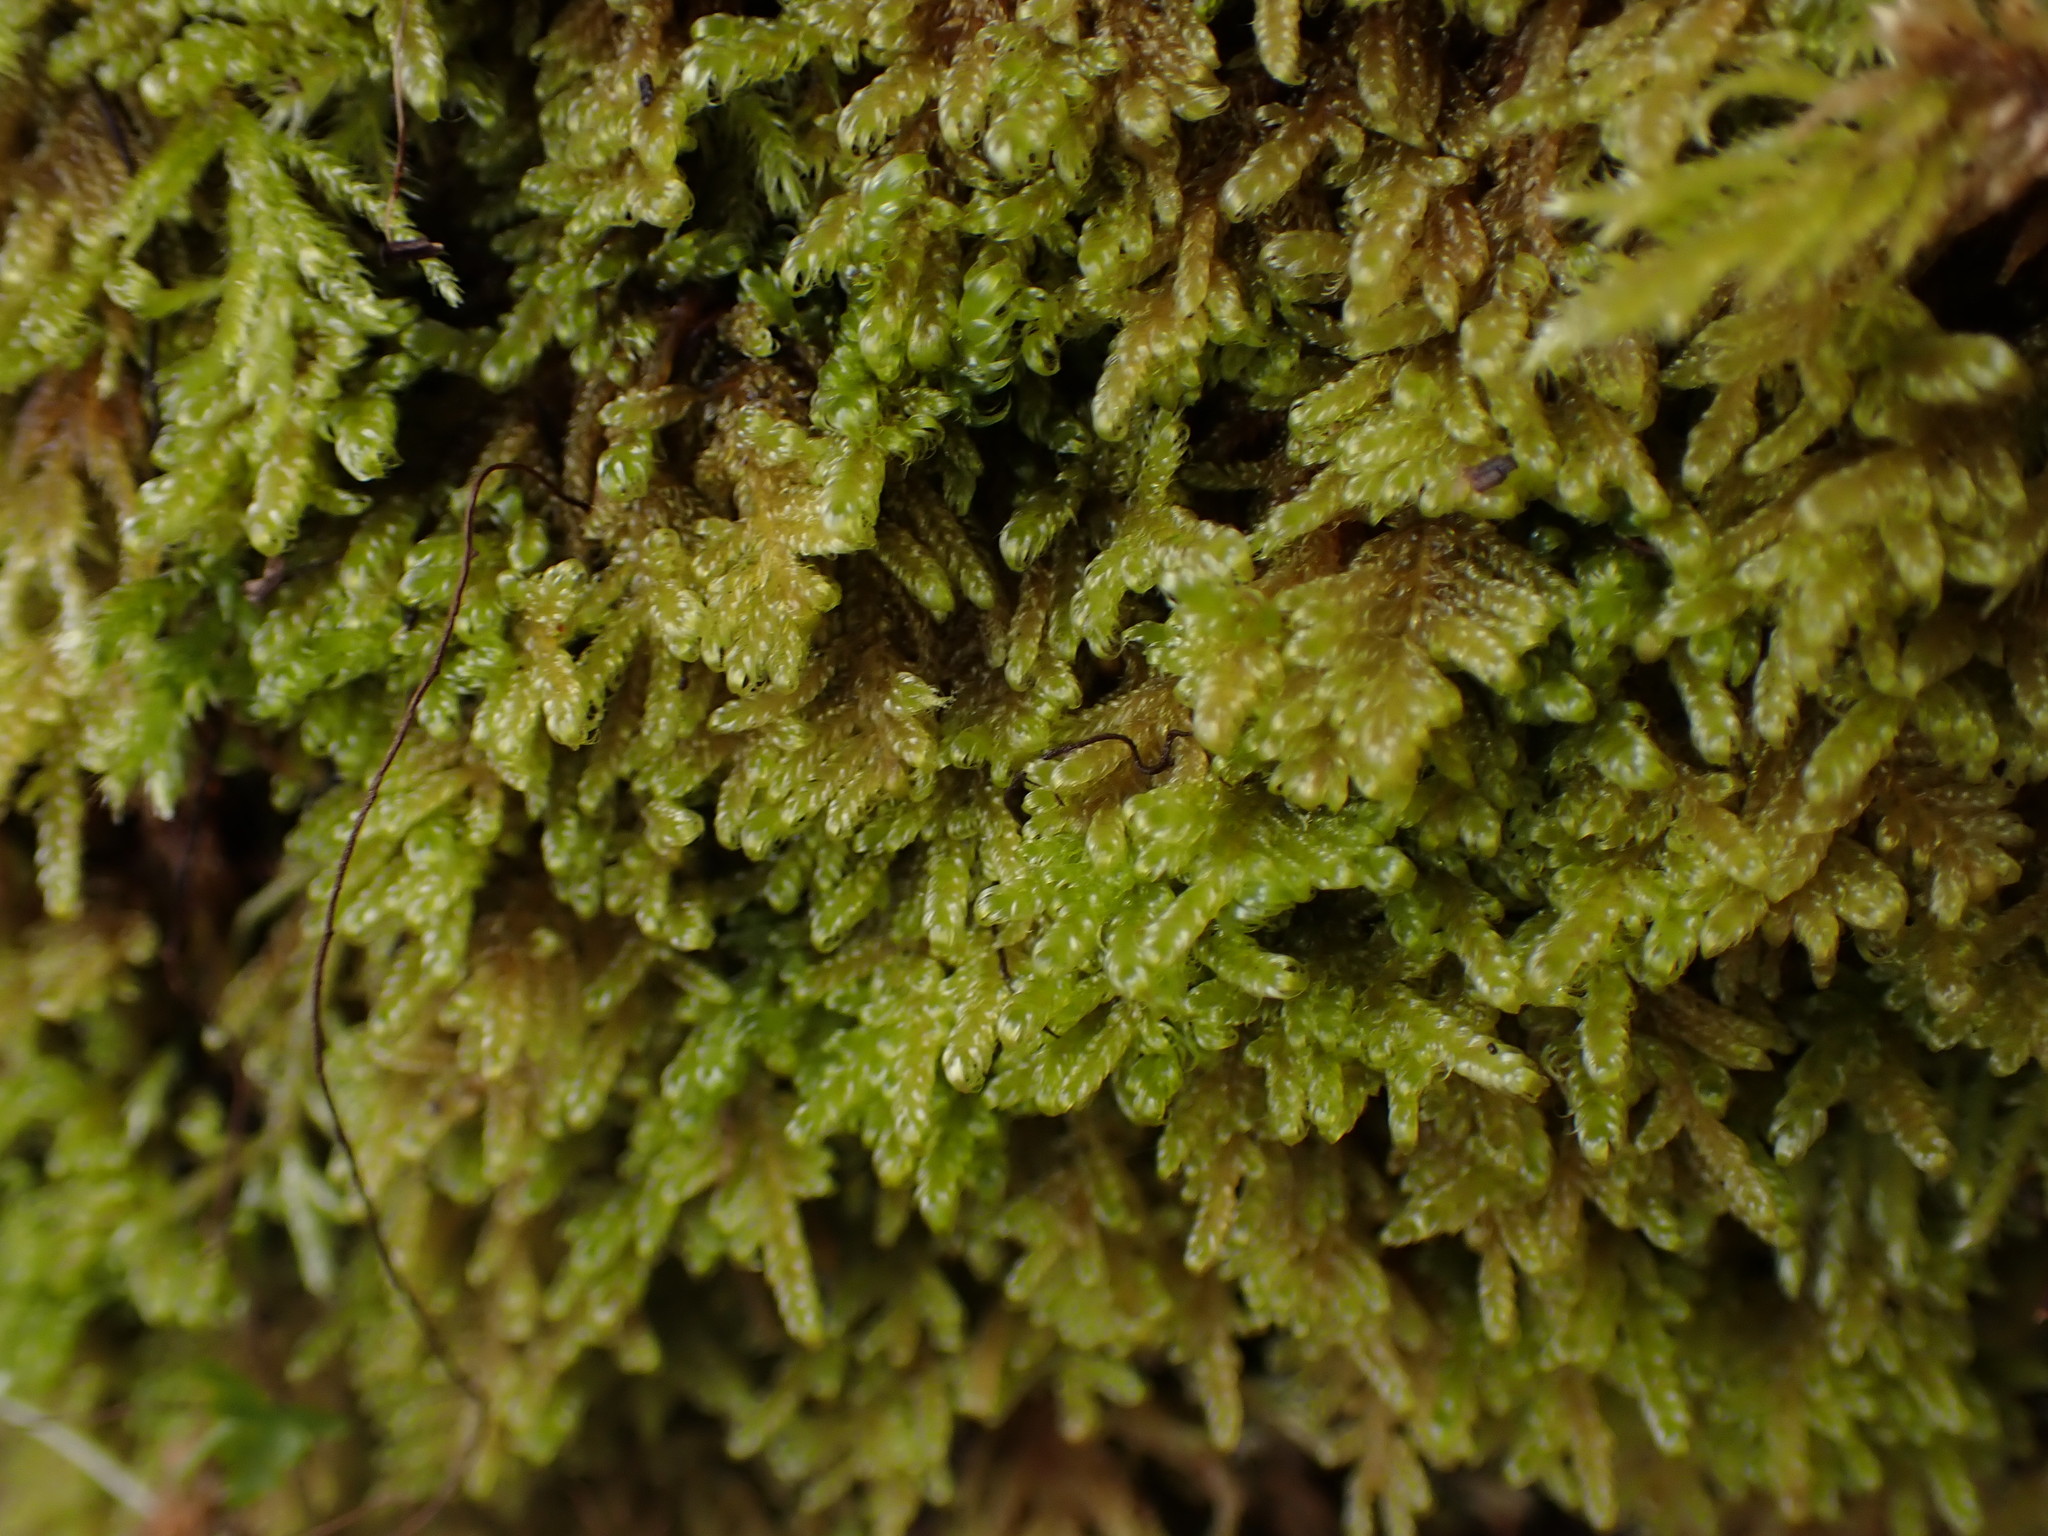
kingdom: Plantae
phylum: Bryophyta
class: Bryopsida
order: Hypnales
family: Stereodontaceae
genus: Stereodon
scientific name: Stereodon subimponens
